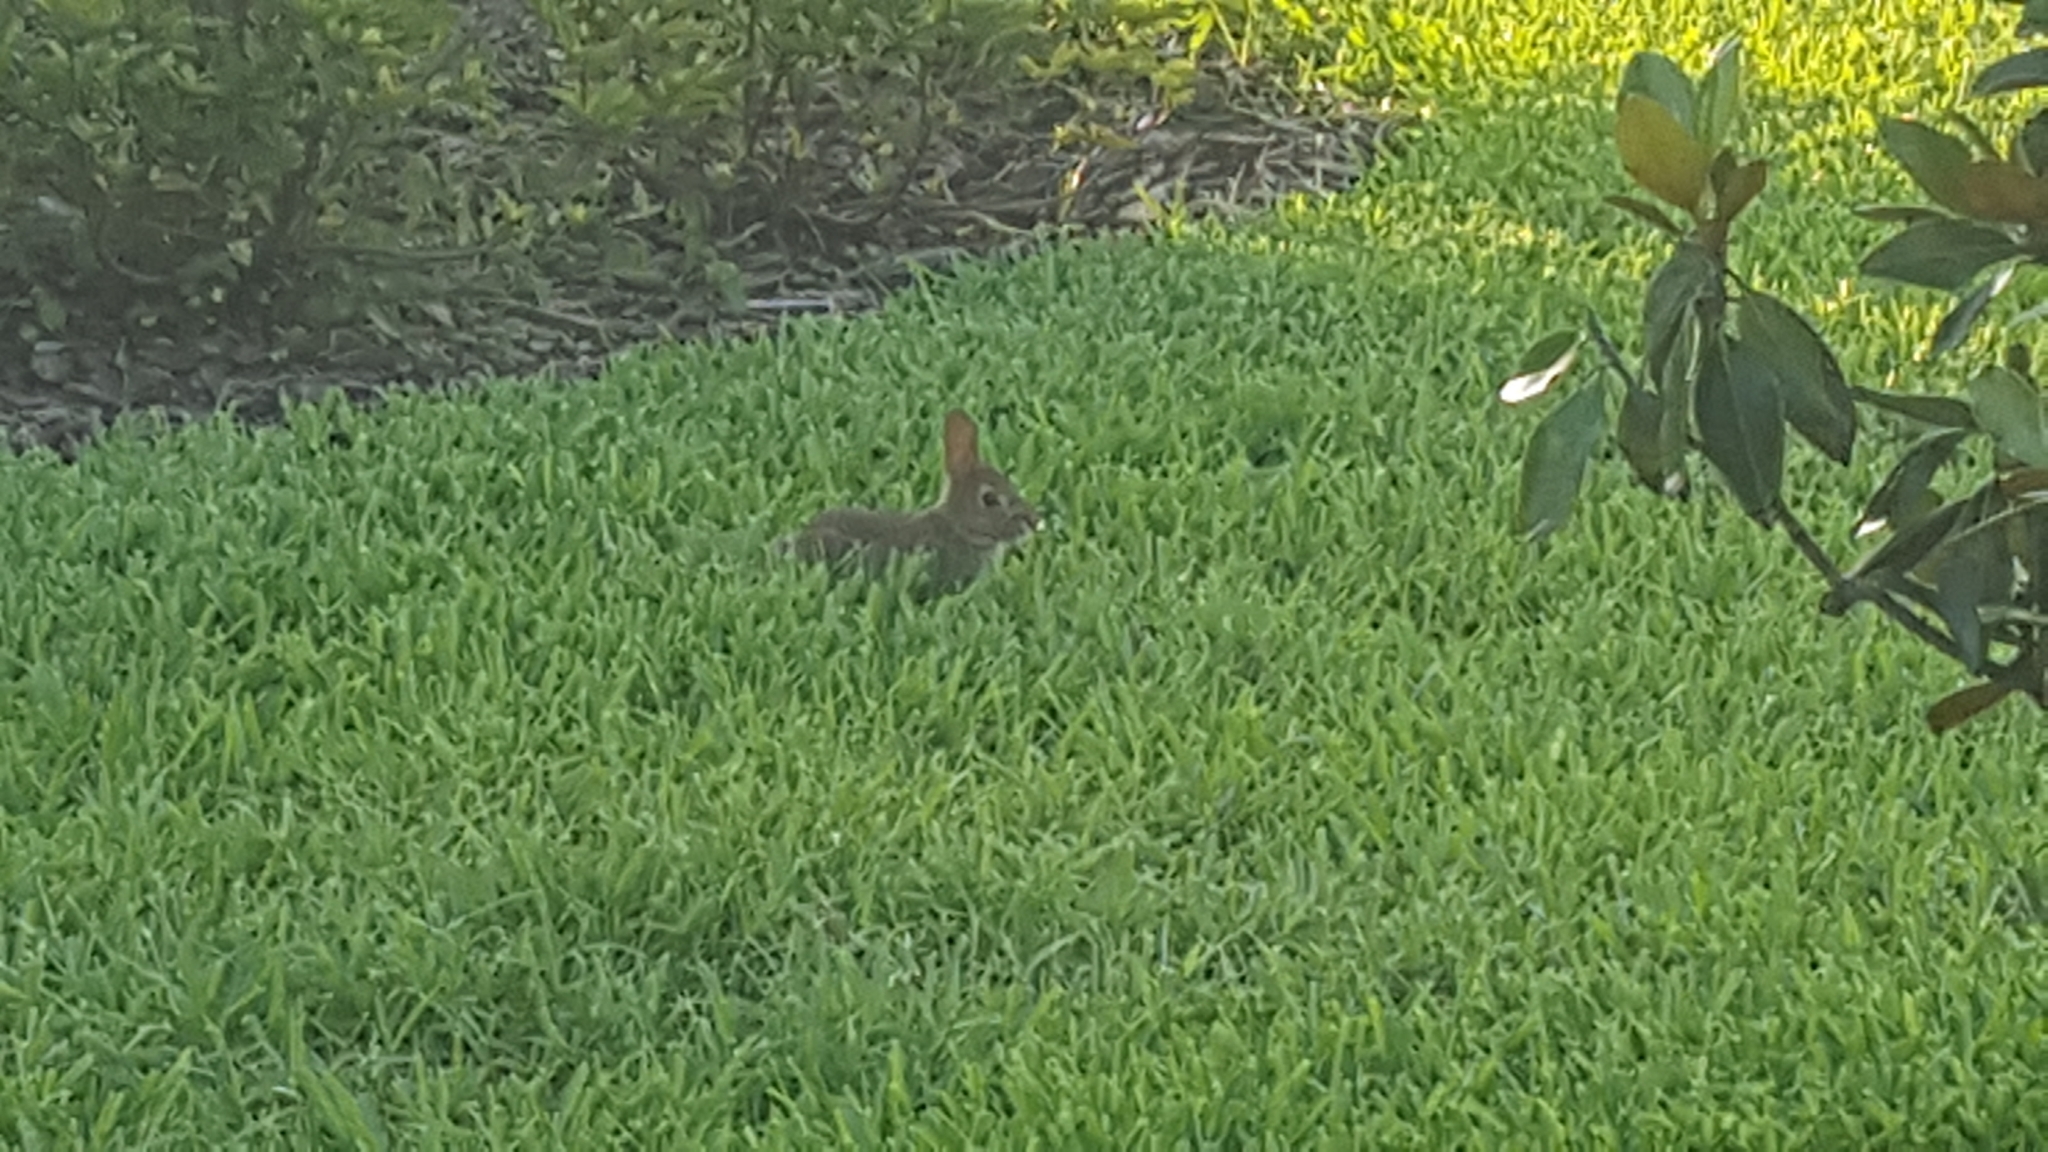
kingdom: Animalia
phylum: Chordata
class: Mammalia
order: Lagomorpha
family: Leporidae
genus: Sylvilagus
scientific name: Sylvilagus floridanus
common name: Eastern cottontail
